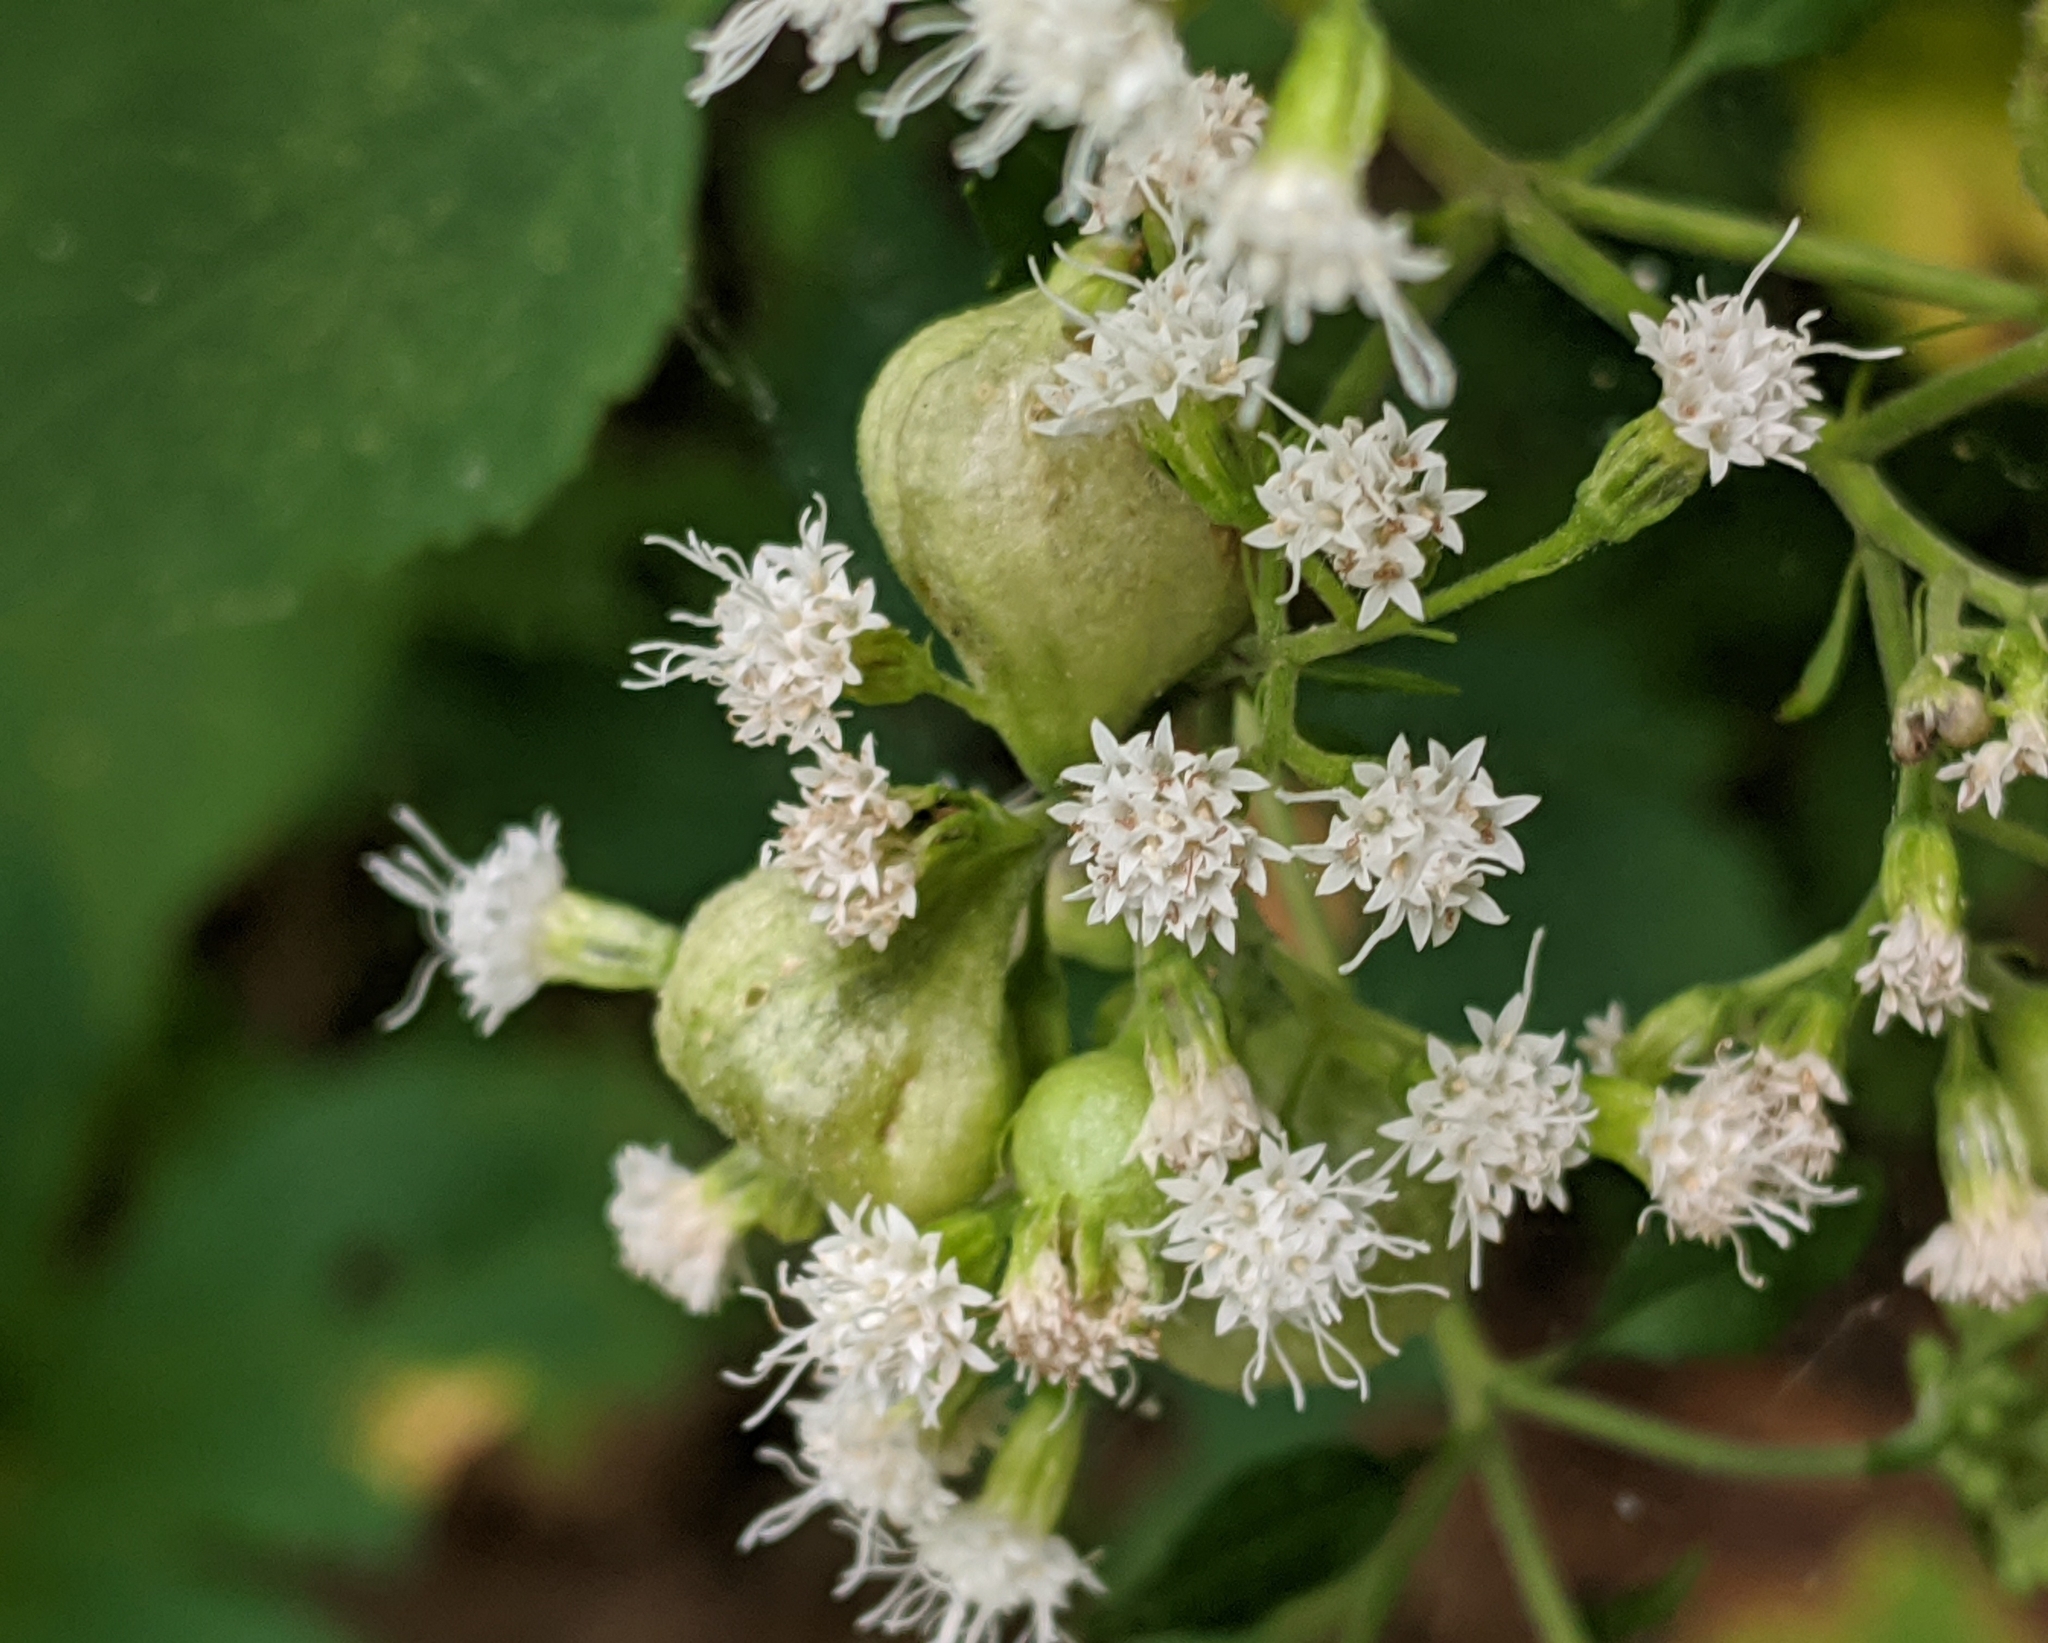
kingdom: Plantae
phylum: Tracheophyta
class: Magnoliopsida
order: Asterales
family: Asteraceae
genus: Ageratina
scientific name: Ageratina altissima
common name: White snakeroot
